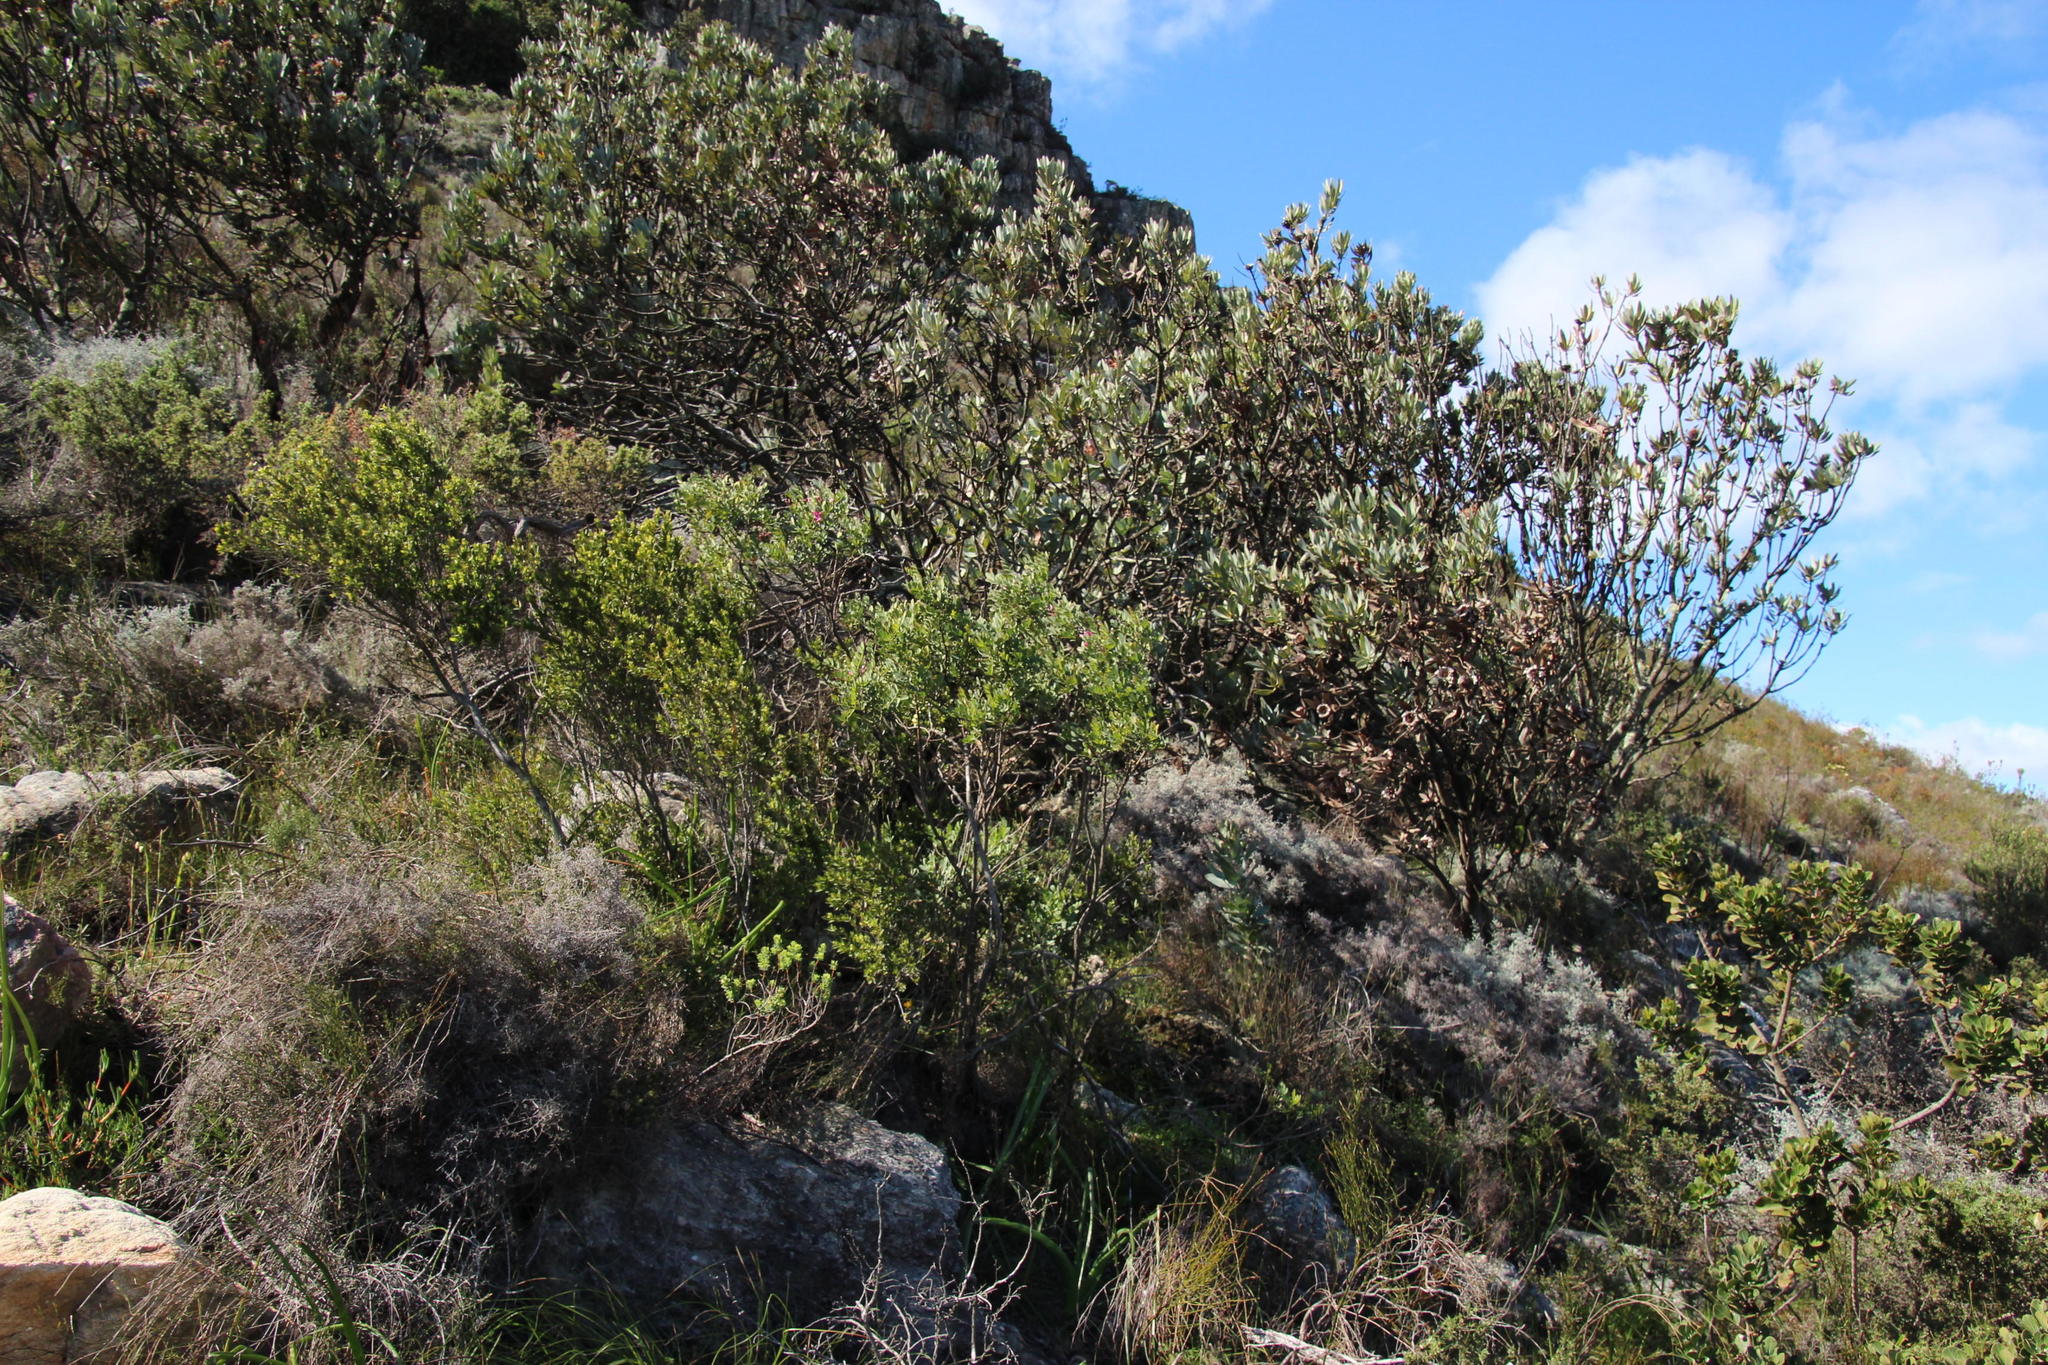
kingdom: Plantae
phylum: Tracheophyta
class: Magnoliopsida
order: Proteales
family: Proteaceae
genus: Protea
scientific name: Protea laurifolia
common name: Grey-leaf sugarbsh
